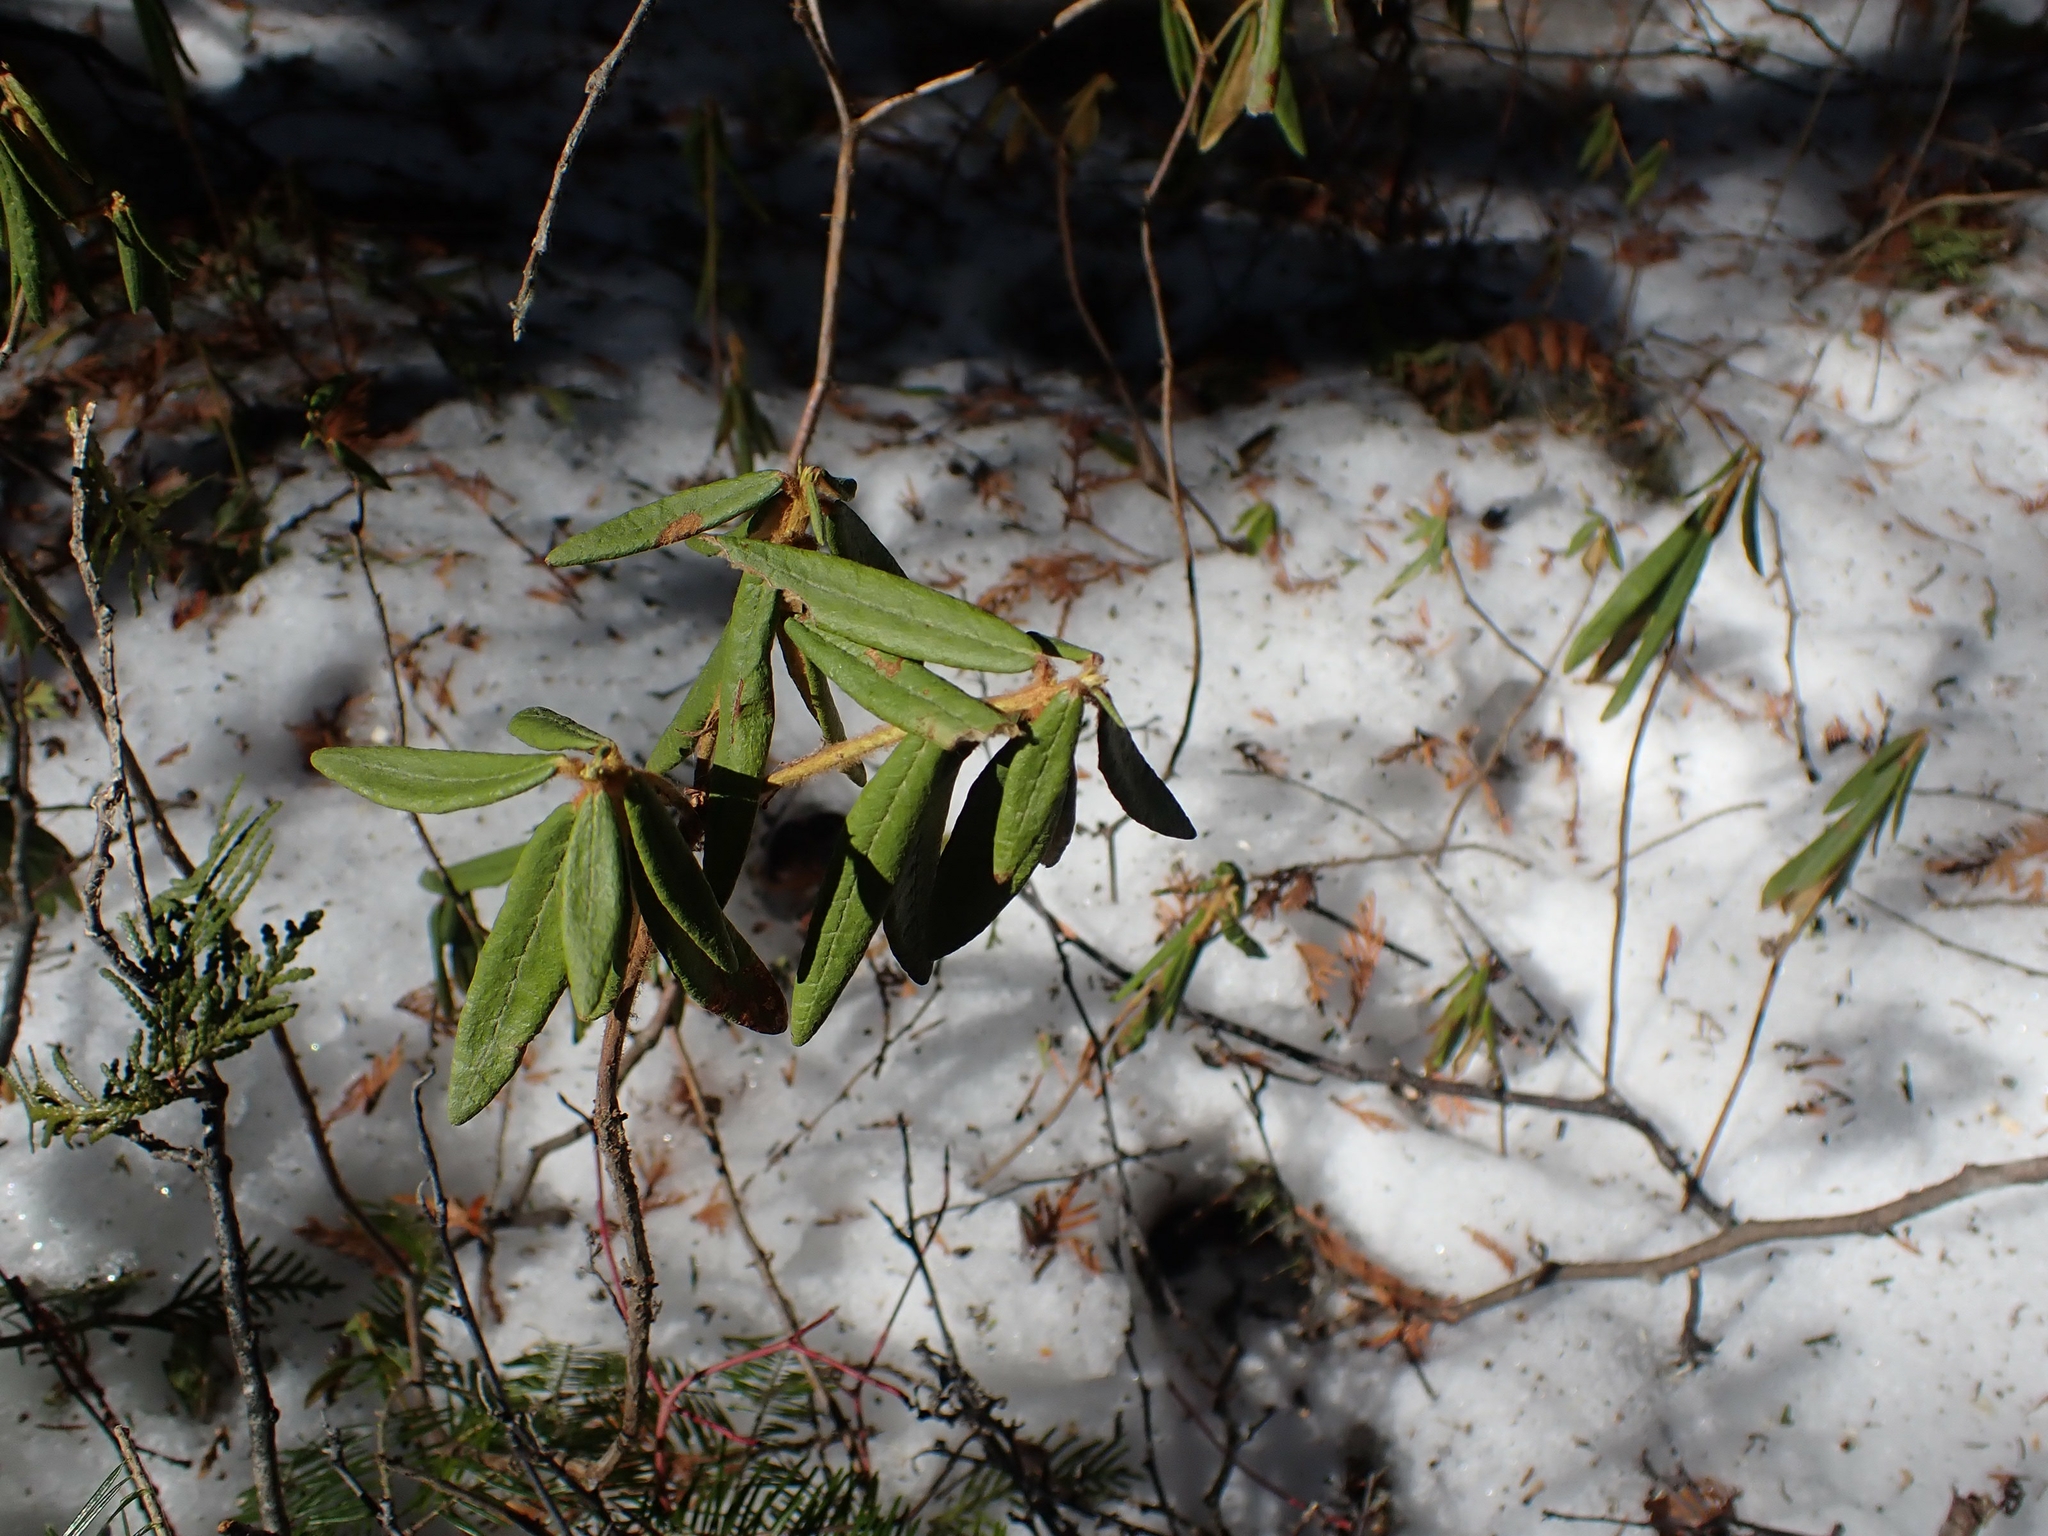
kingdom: Plantae
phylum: Tracheophyta
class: Magnoliopsida
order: Ericales
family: Ericaceae
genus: Rhododendron
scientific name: Rhododendron groenlandicum
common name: Bog labrador tea
